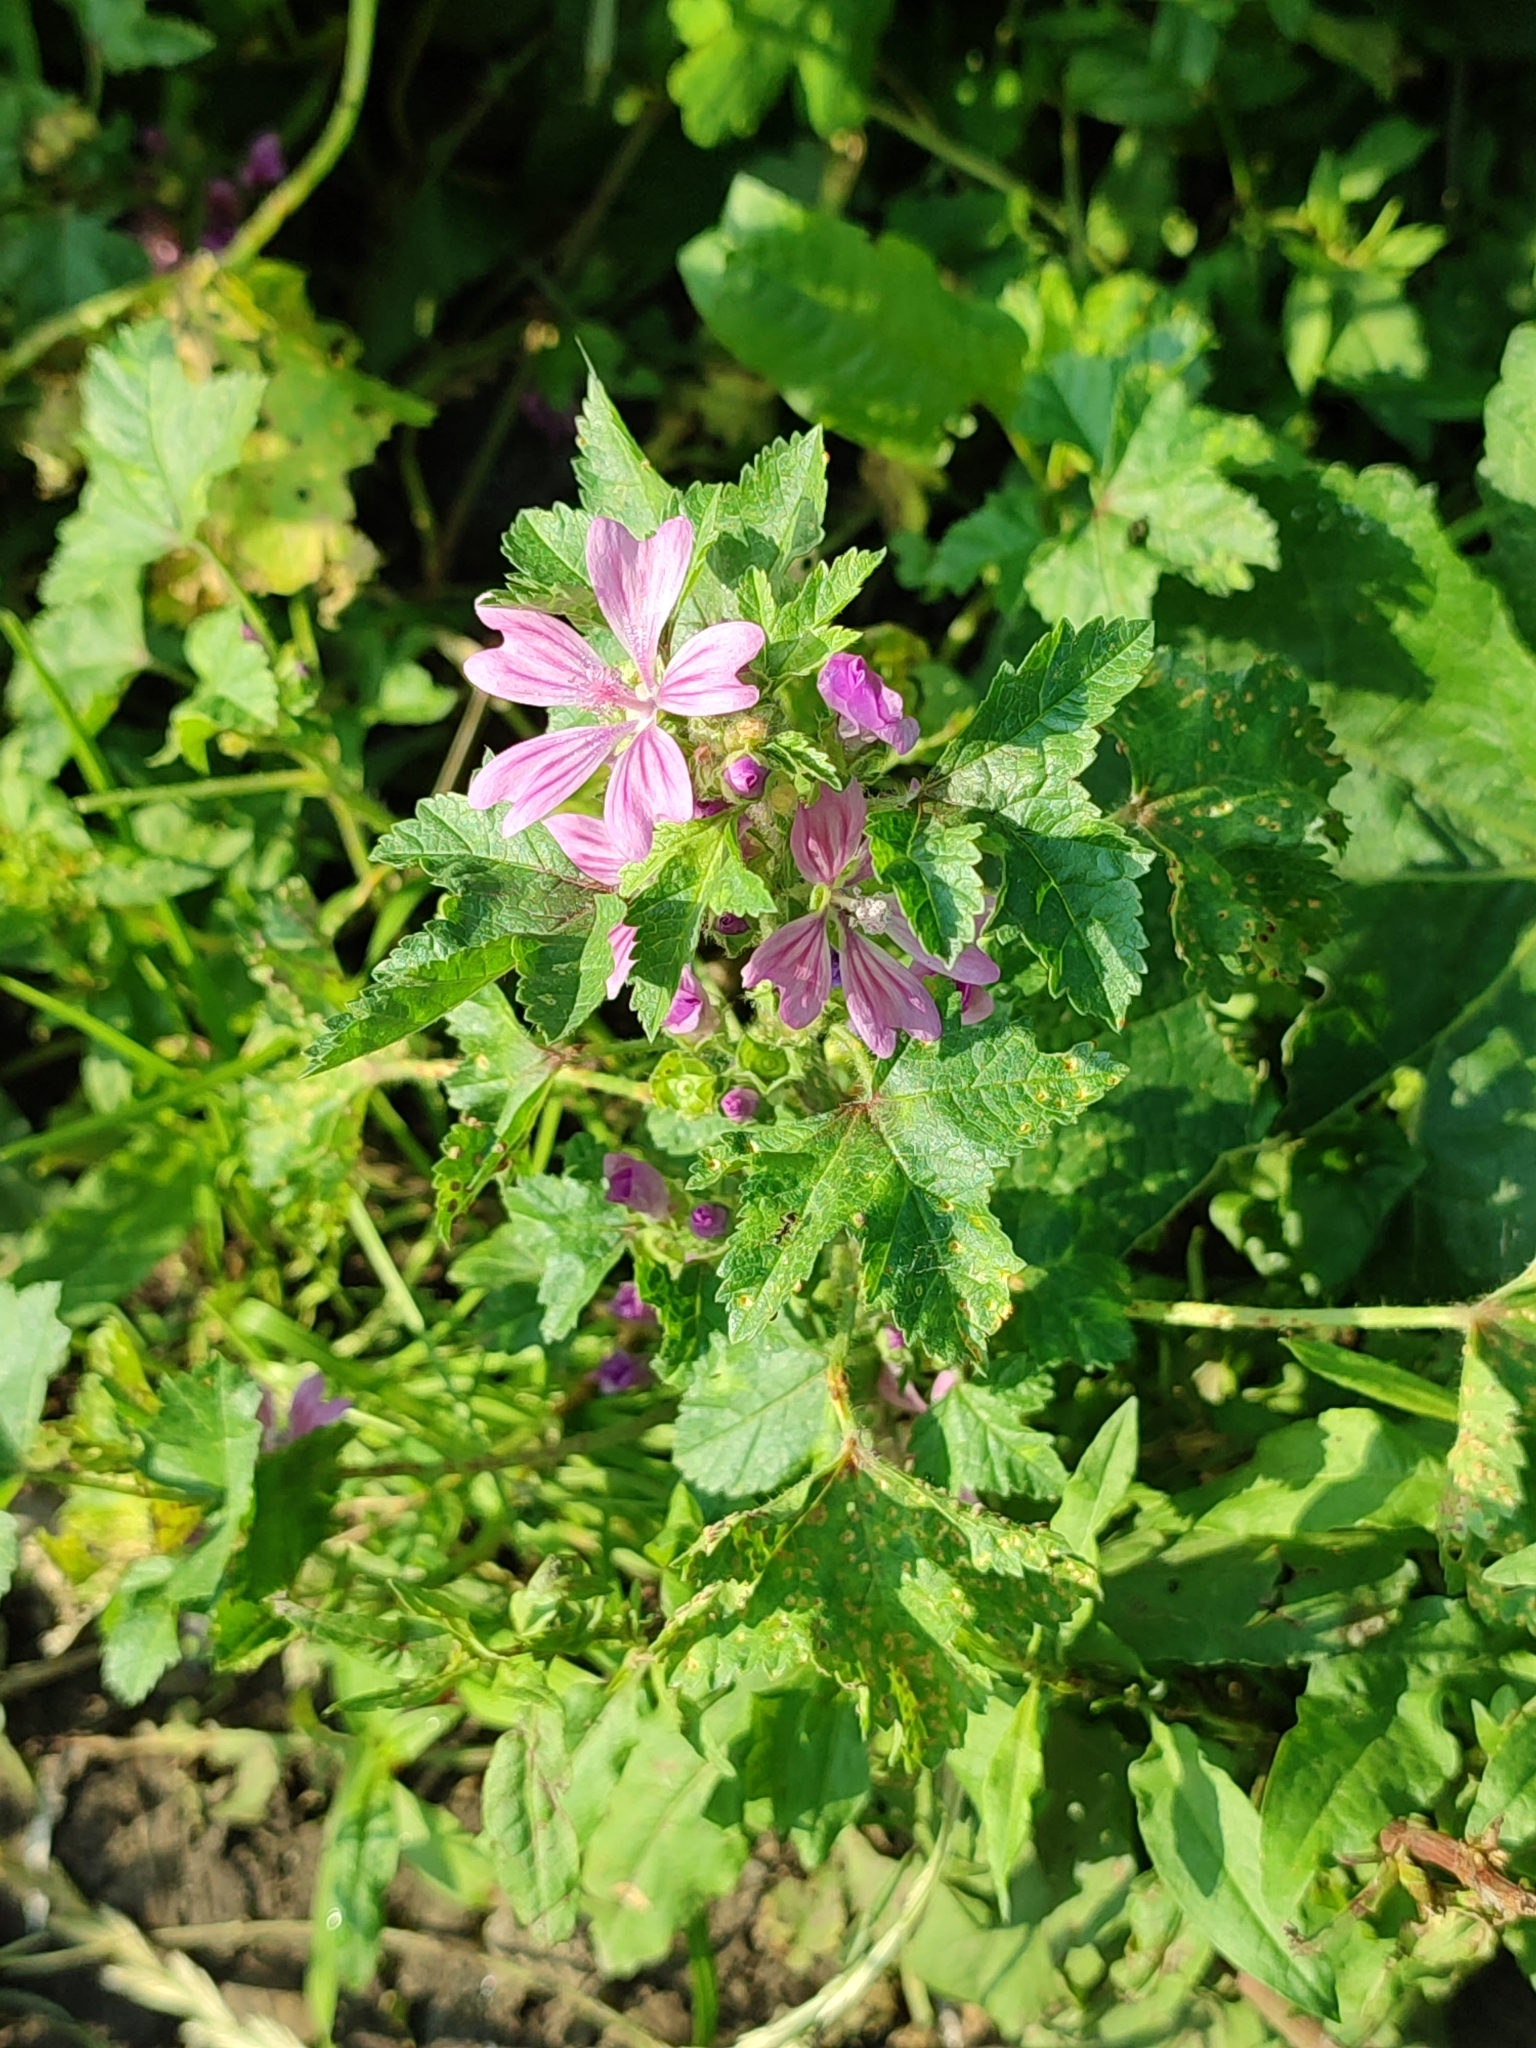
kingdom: Plantae
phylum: Tracheophyta
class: Magnoliopsida
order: Malvales
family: Malvaceae
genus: Malva
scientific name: Malva sylvestris
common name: Common mallow
